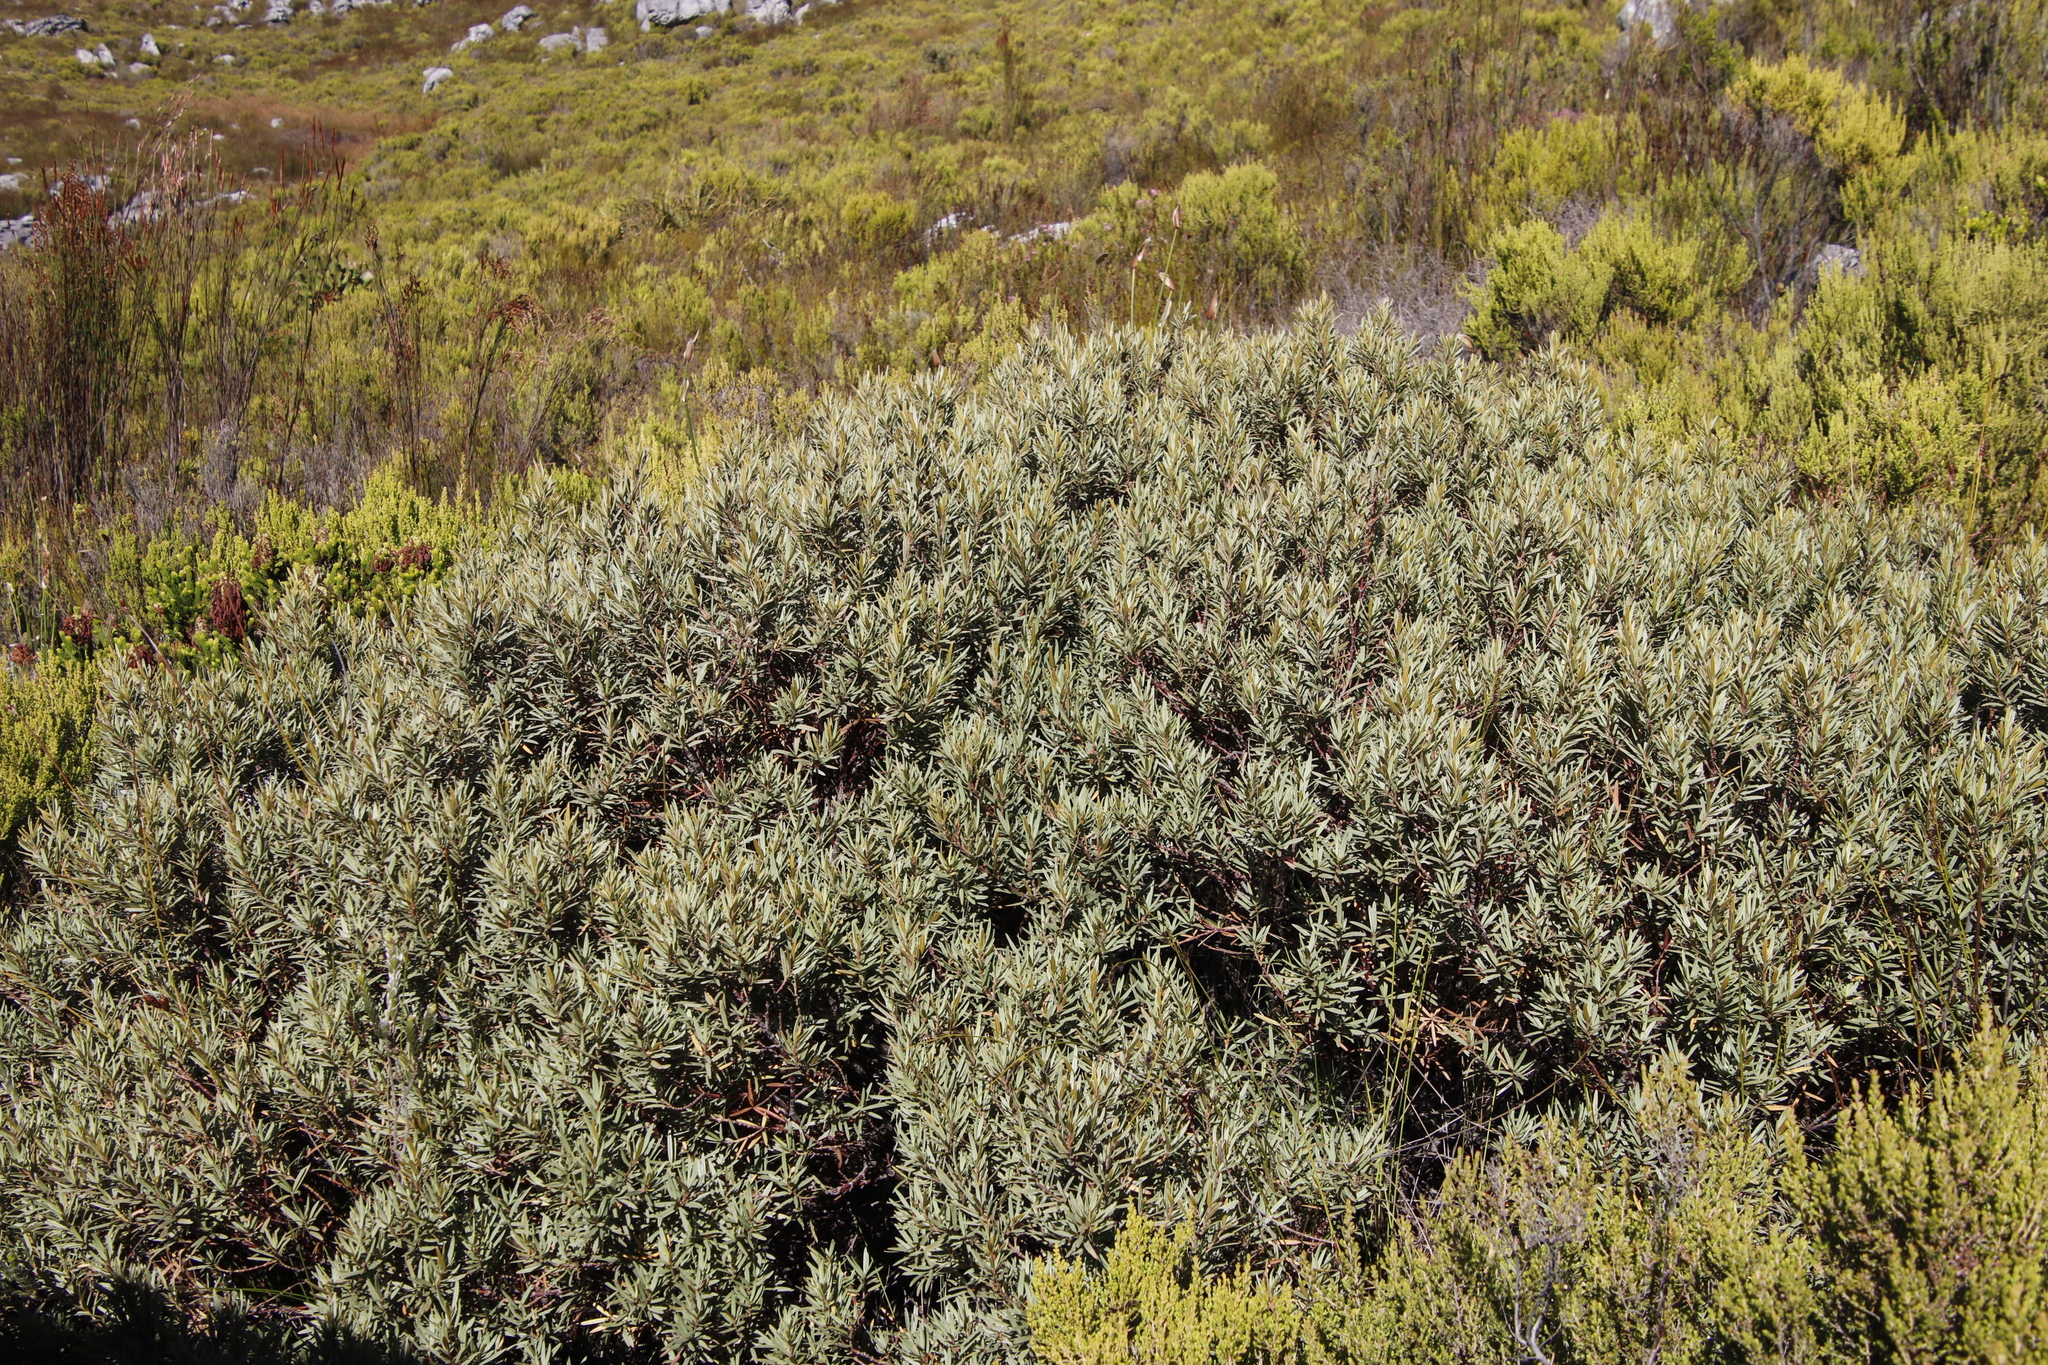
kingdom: Plantae
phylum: Tracheophyta
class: Magnoliopsida
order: Cornales
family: Grubbiaceae
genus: Grubbia
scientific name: Grubbia tomentosa
